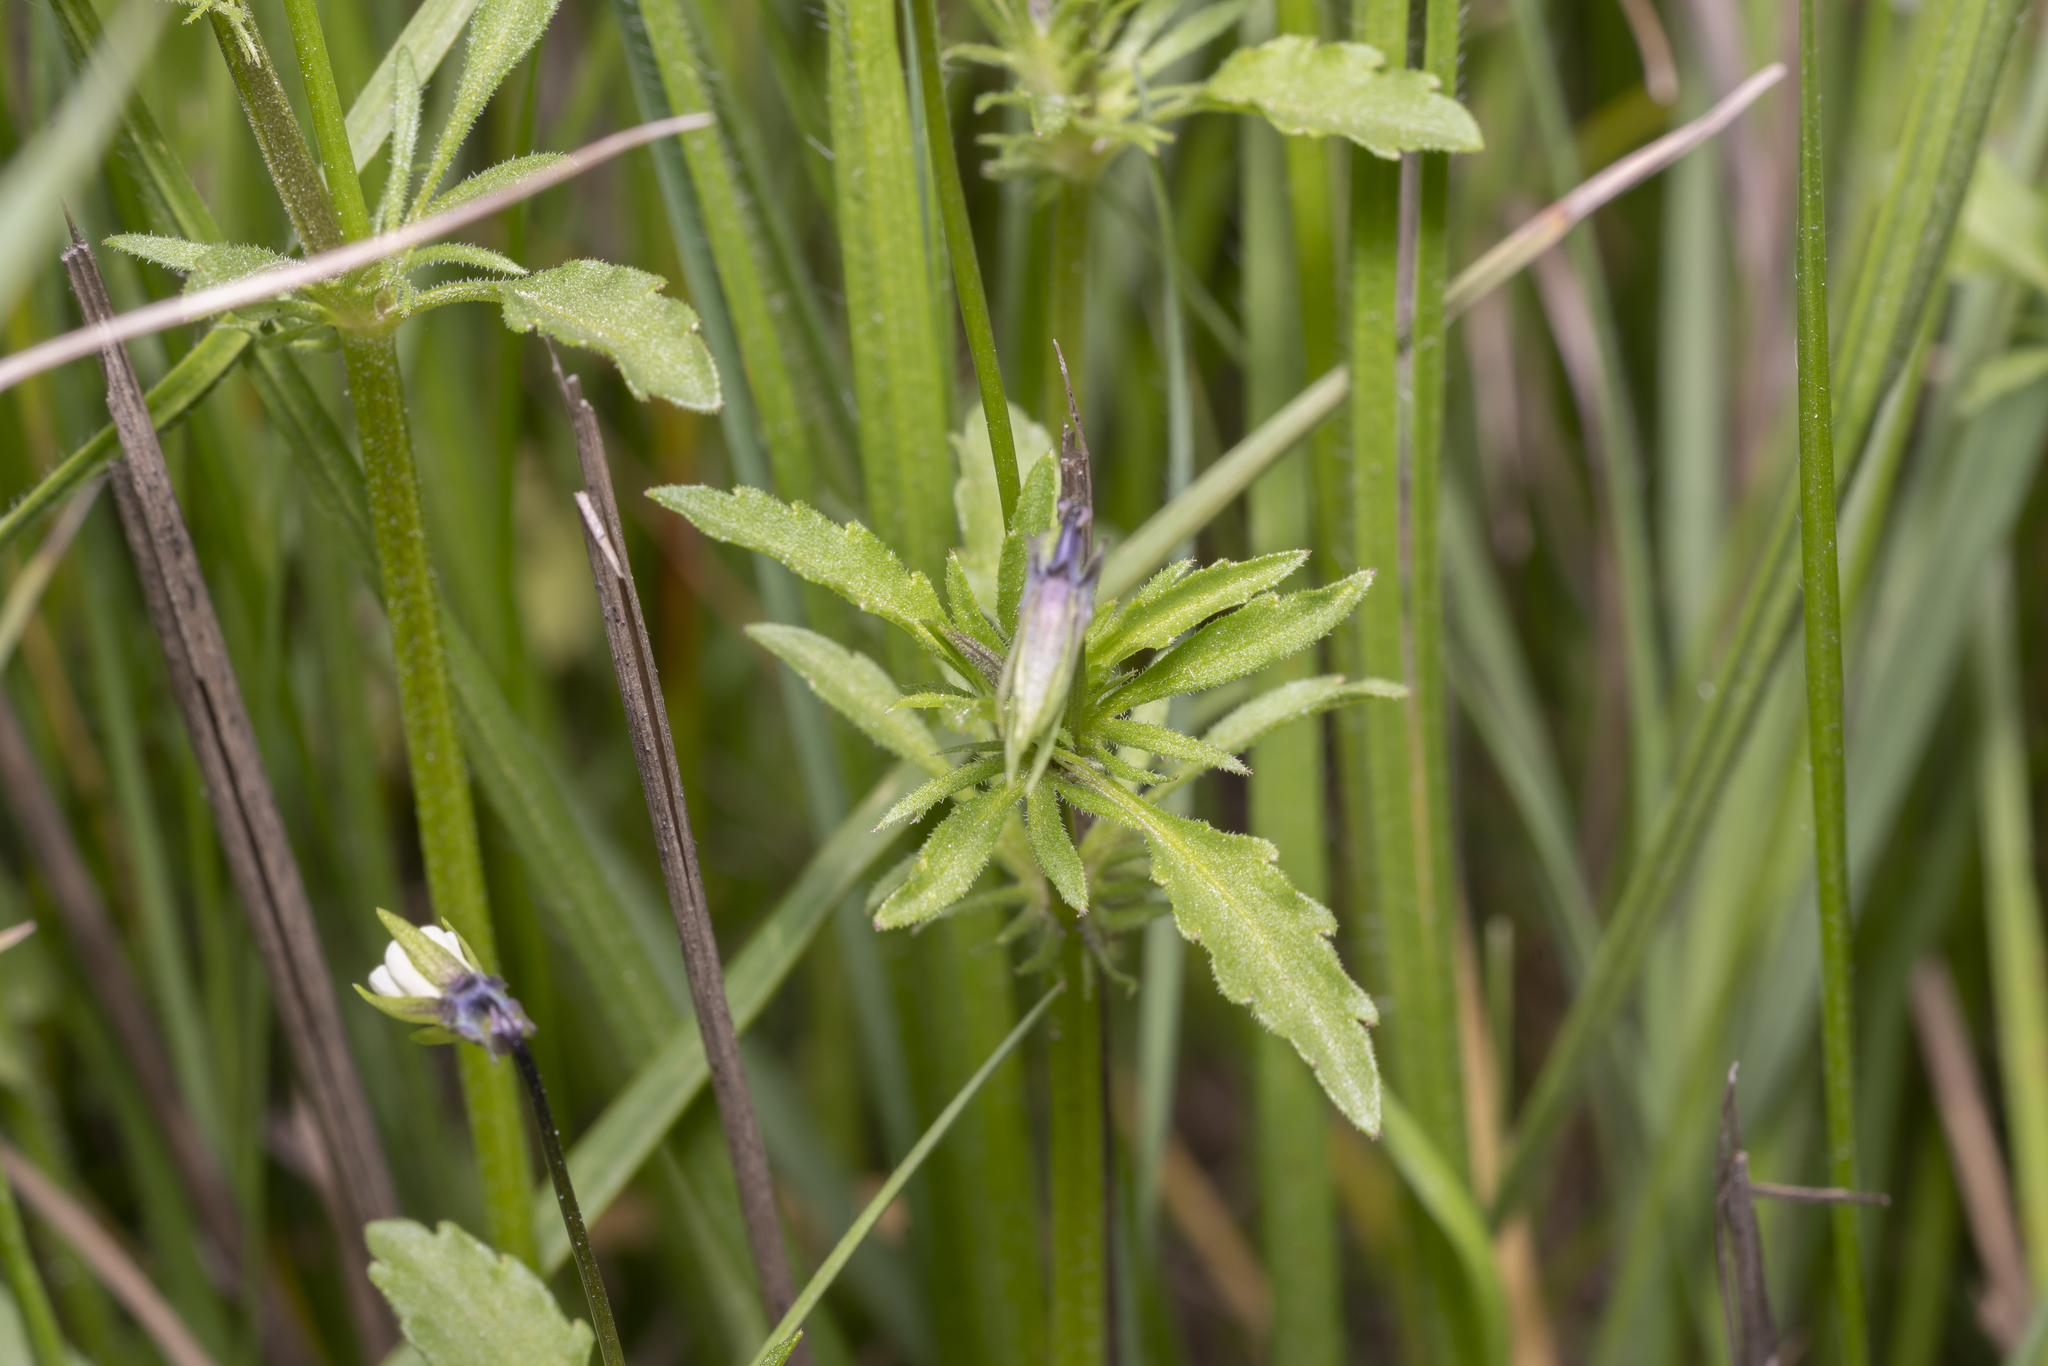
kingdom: Plantae
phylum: Tracheophyta
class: Magnoliopsida
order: Malpighiales
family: Violaceae
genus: Viola
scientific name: Viola arvensis
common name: Field pansy
